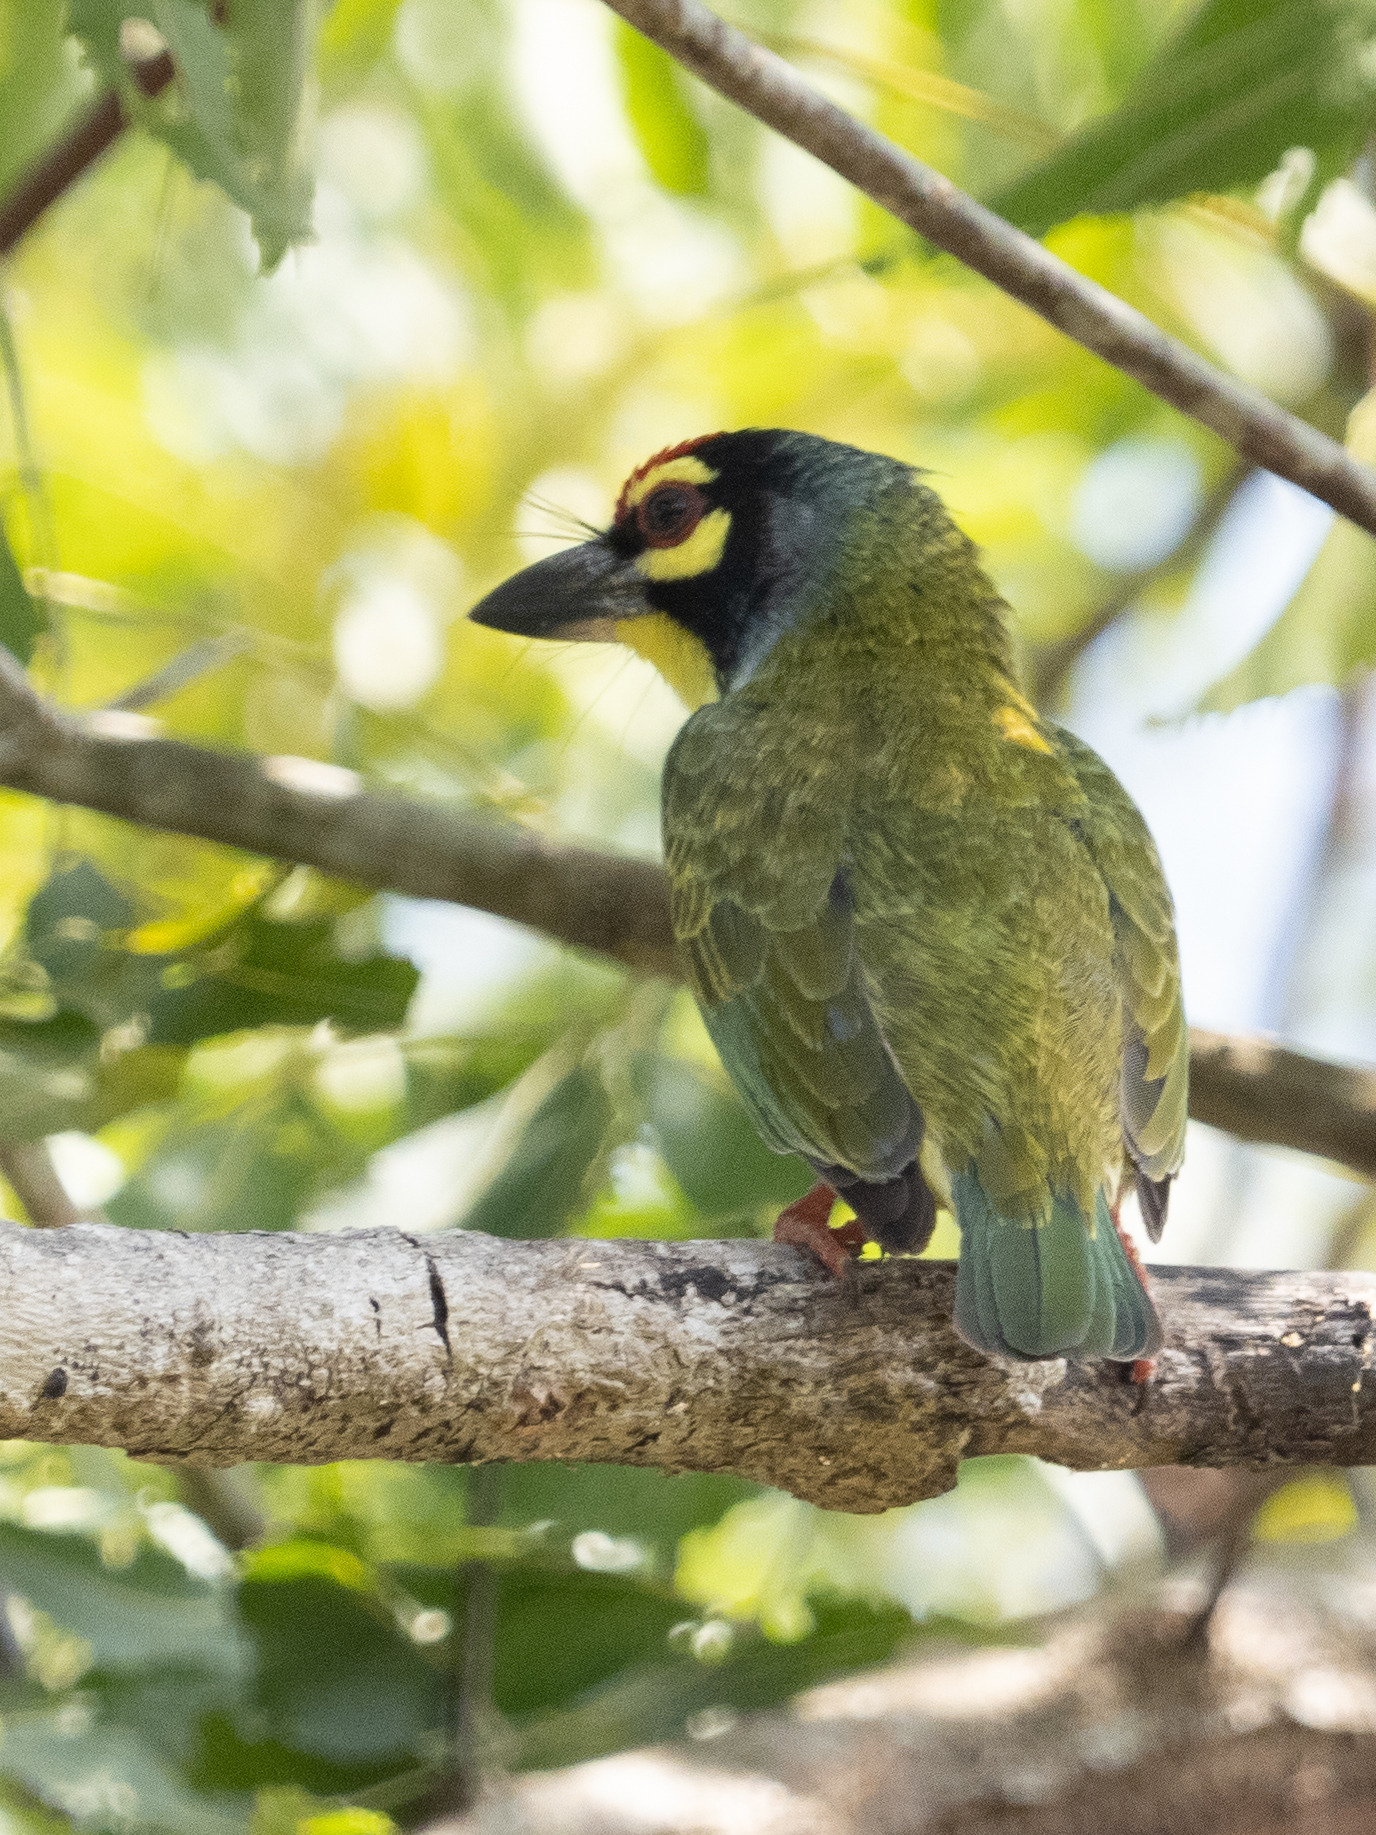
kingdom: Animalia
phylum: Chordata
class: Aves
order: Piciformes
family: Megalaimidae
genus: Psilopogon
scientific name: Psilopogon haemacephalus
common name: Coppersmith barbet
